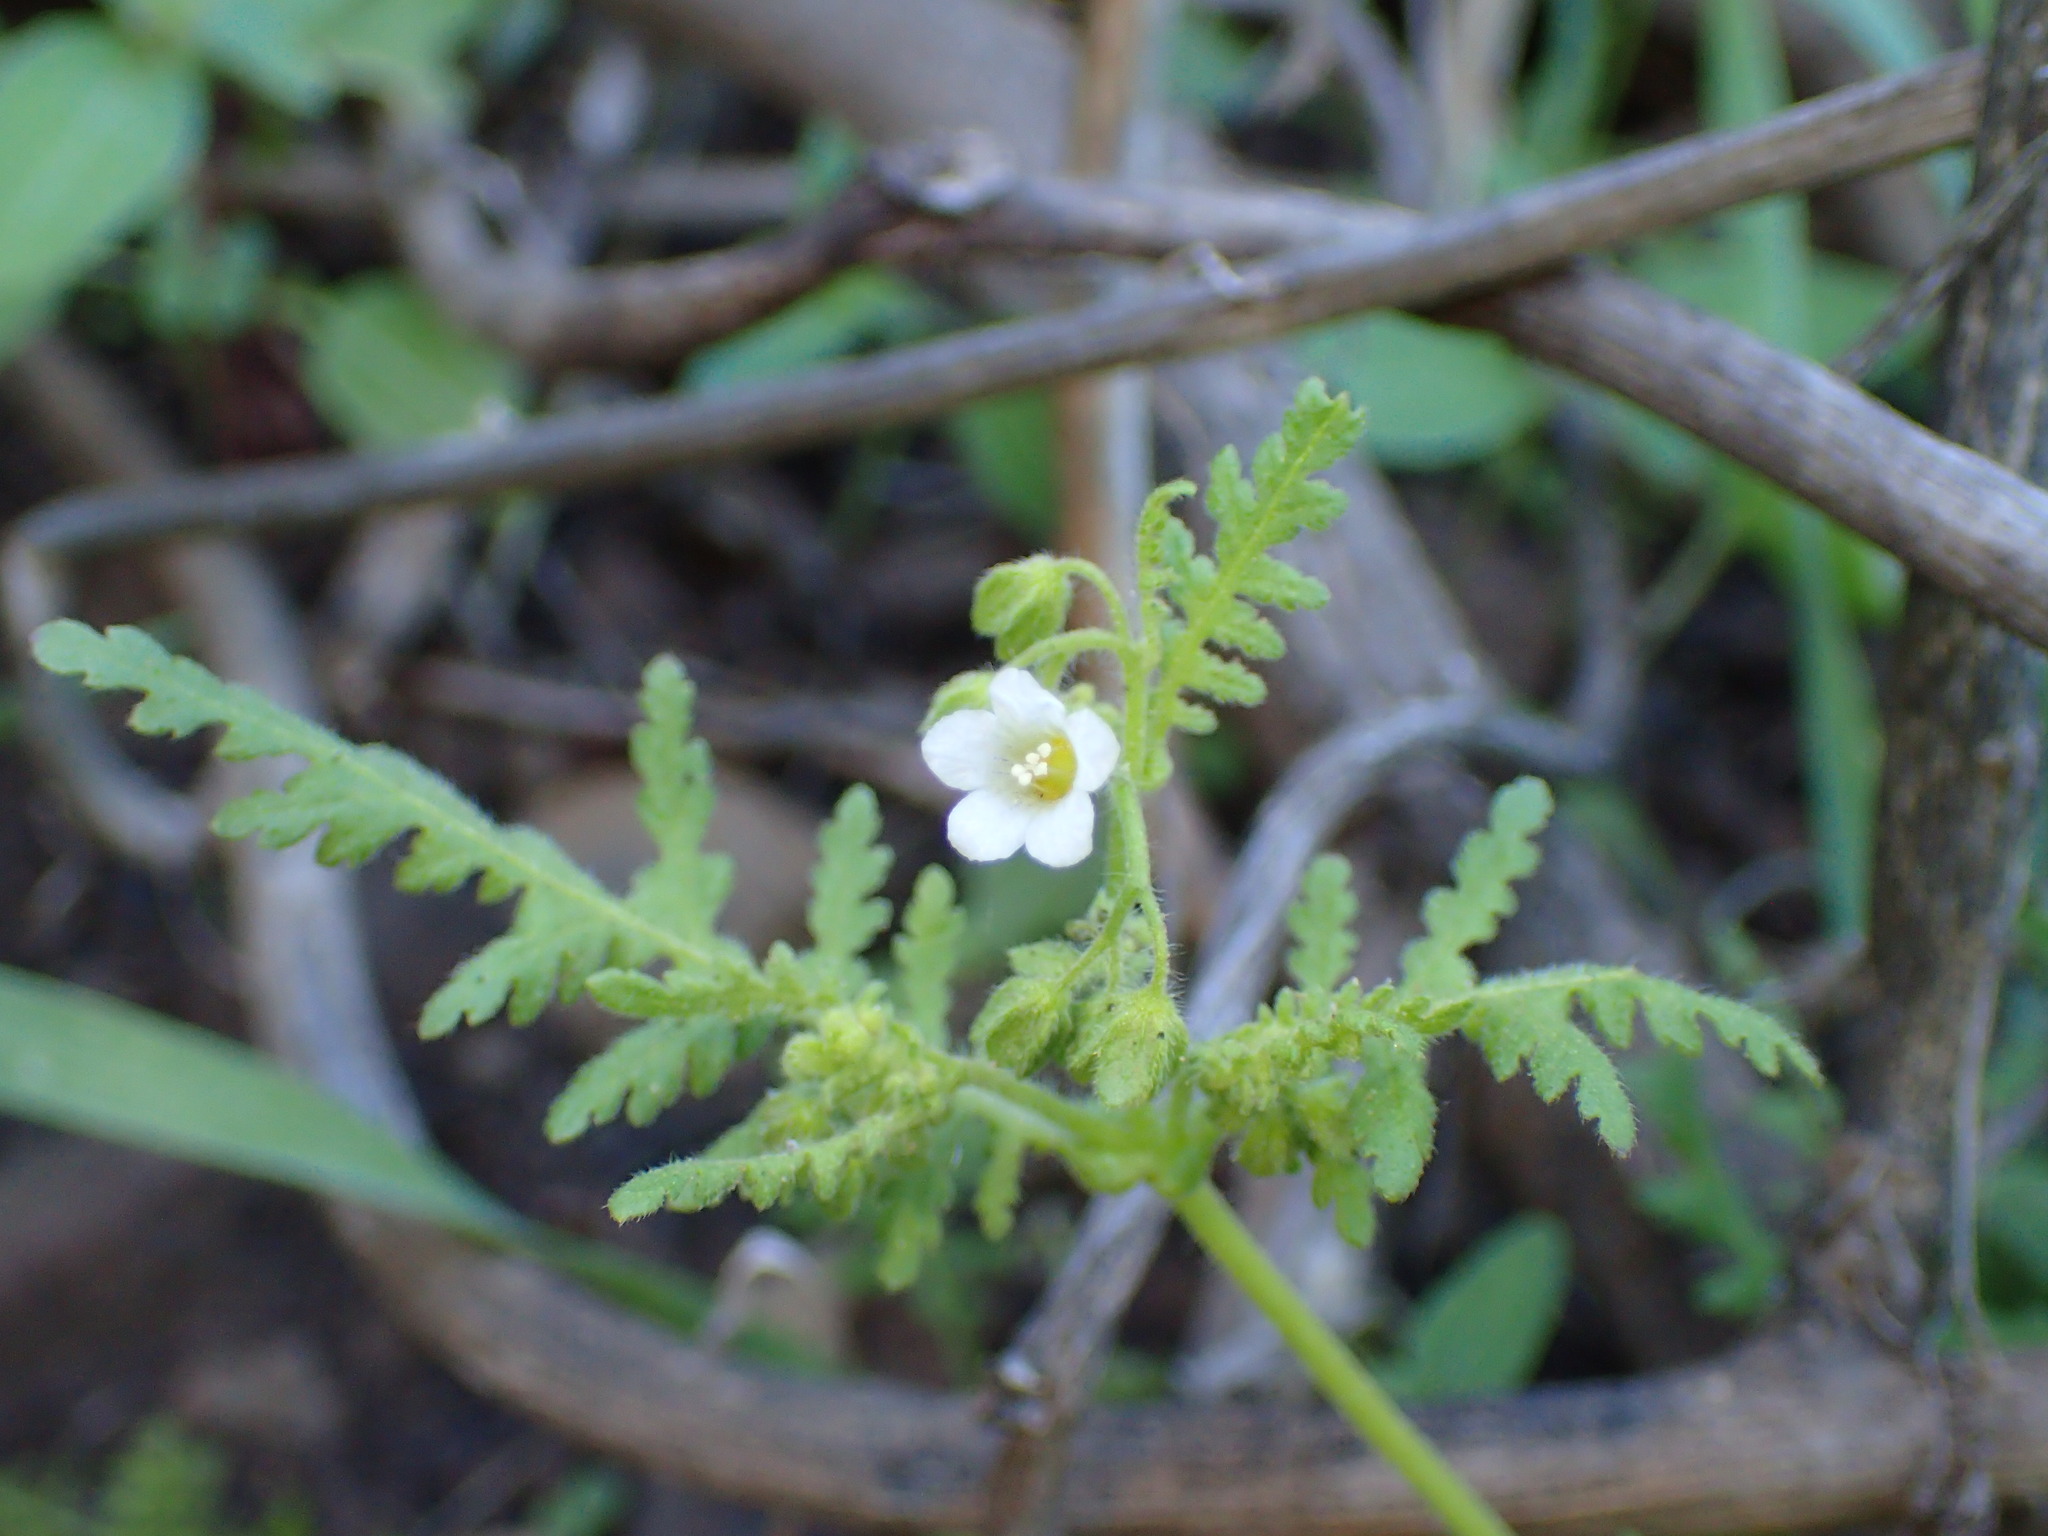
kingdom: Plantae
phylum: Tracheophyta
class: Magnoliopsida
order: Boraginales
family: Hydrophyllaceae
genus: Eucrypta
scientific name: Eucrypta chrysanthemifolia
